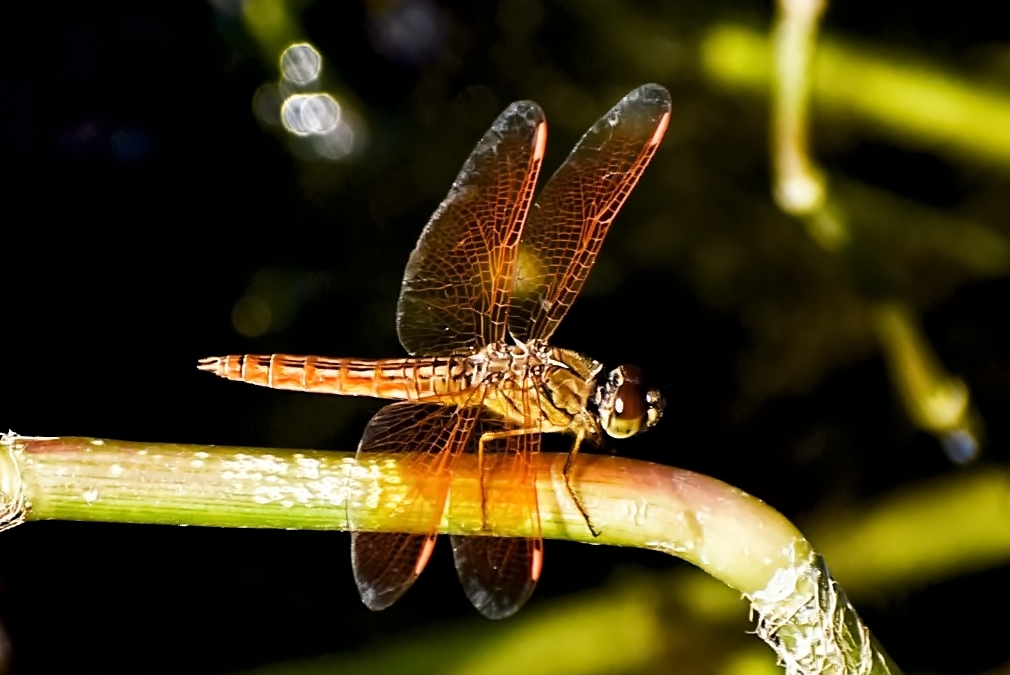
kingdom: Animalia
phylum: Arthropoda
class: Insecta
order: Odonata
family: Libellulidae
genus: Brachythemis
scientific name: Brachythemis contaminata
